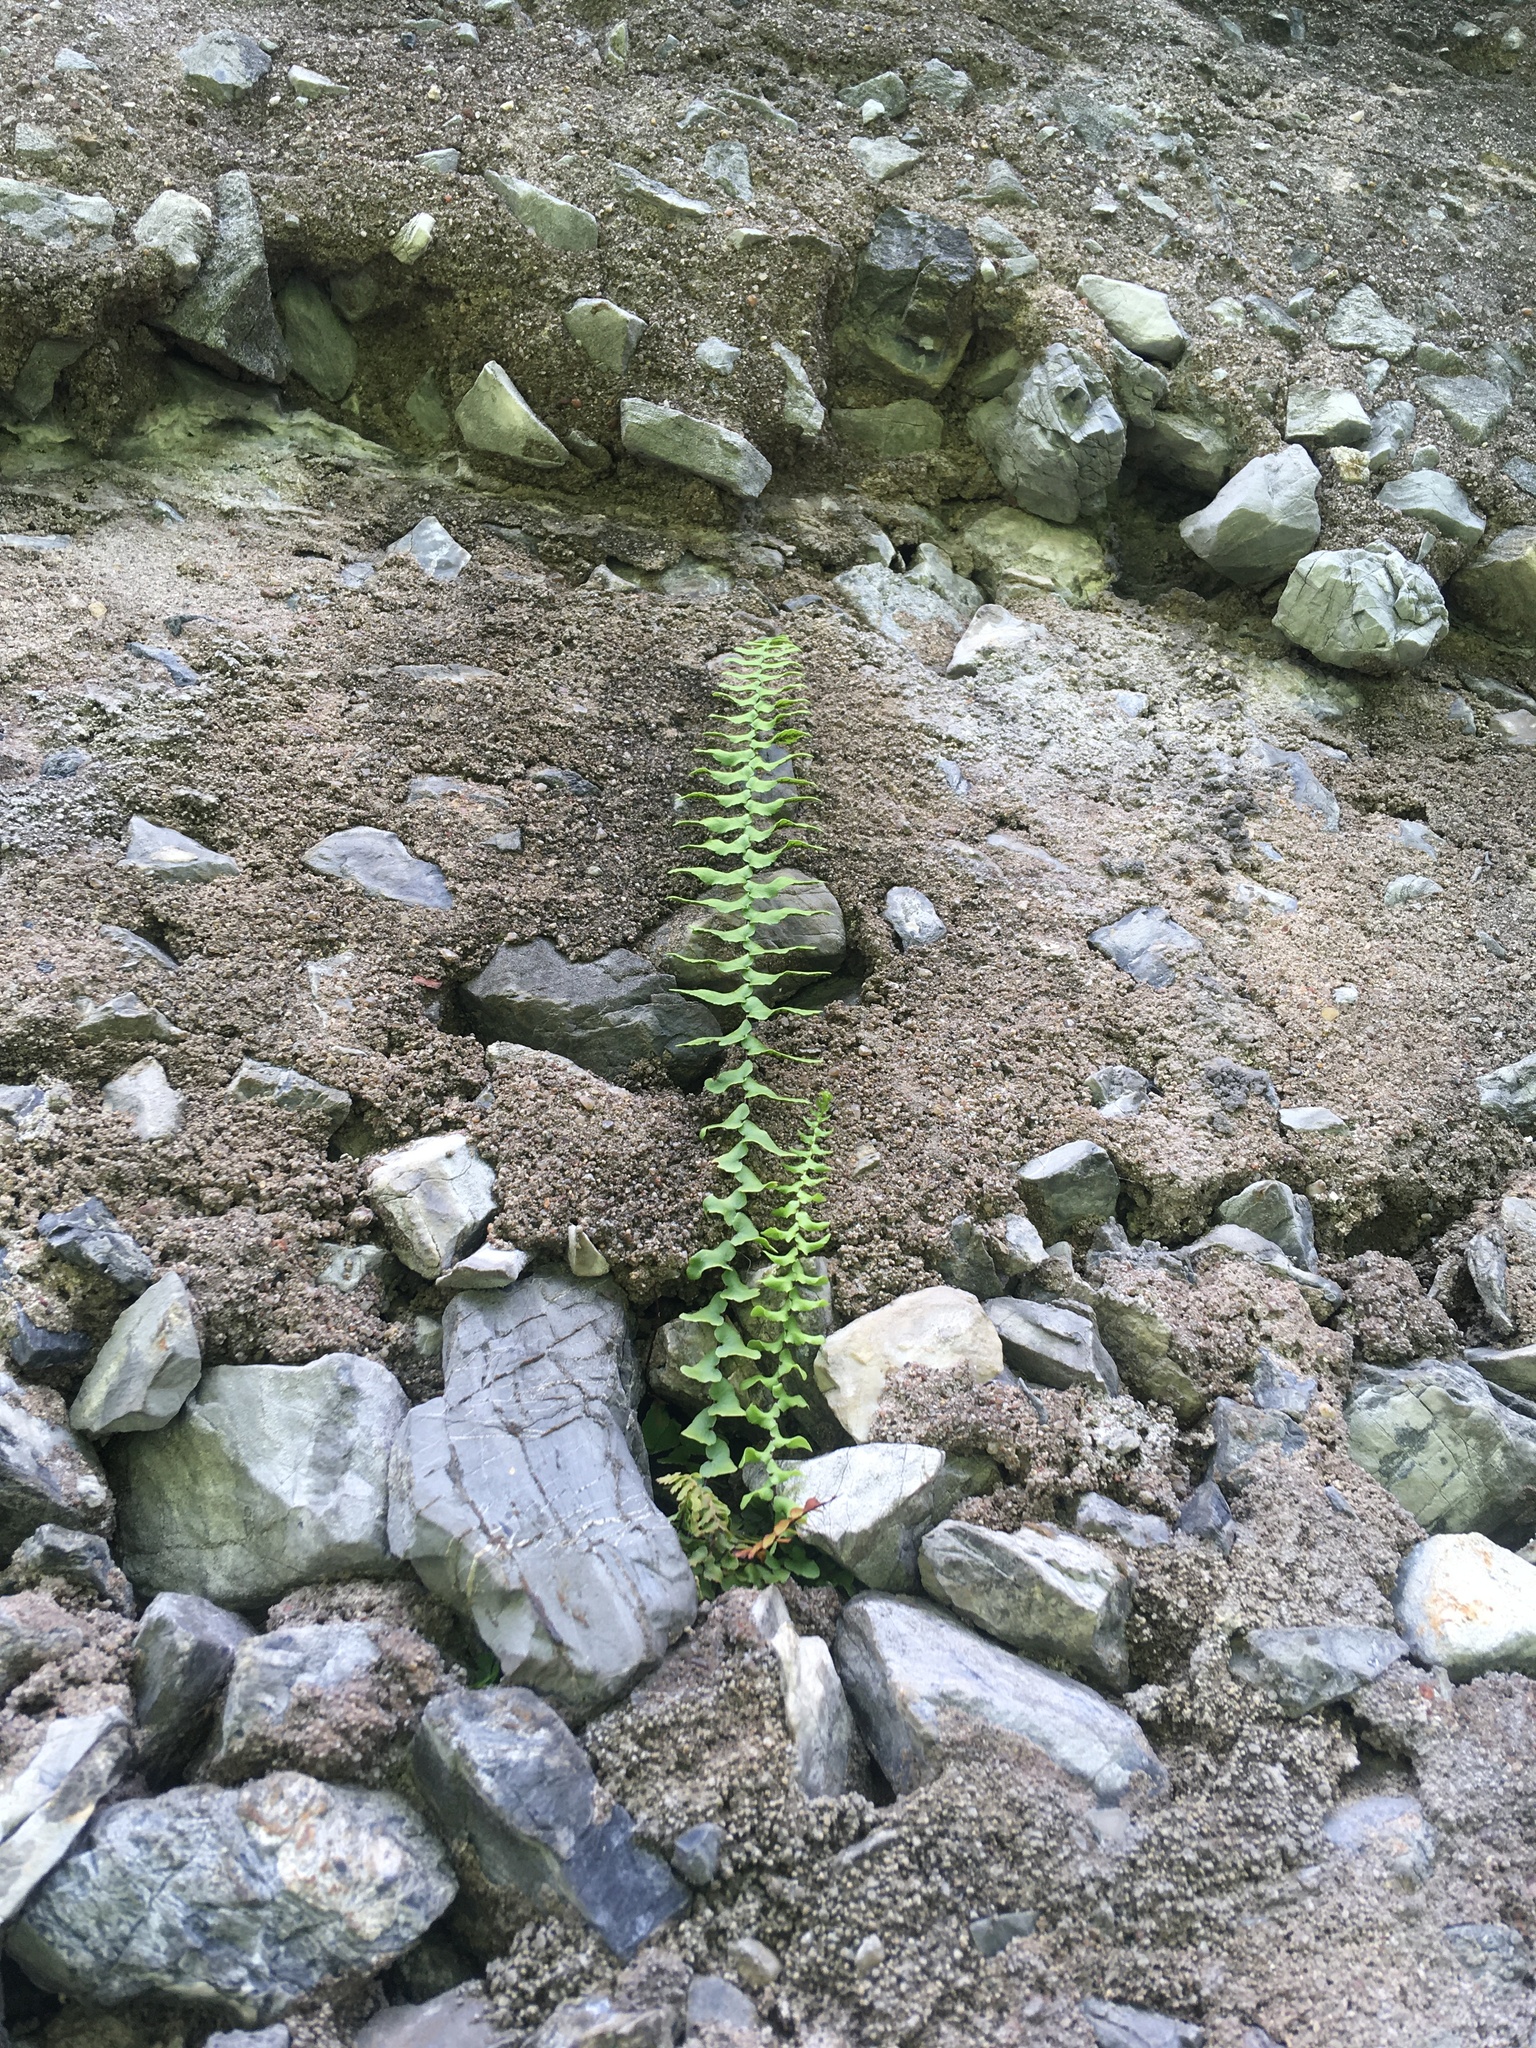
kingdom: Plantae
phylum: Tracheophyta
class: Polypodiopsida
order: Polypodiales
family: Aspleniaceae
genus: Asplenium
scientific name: Asplenium platyneuron
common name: Ebony spleenwort
